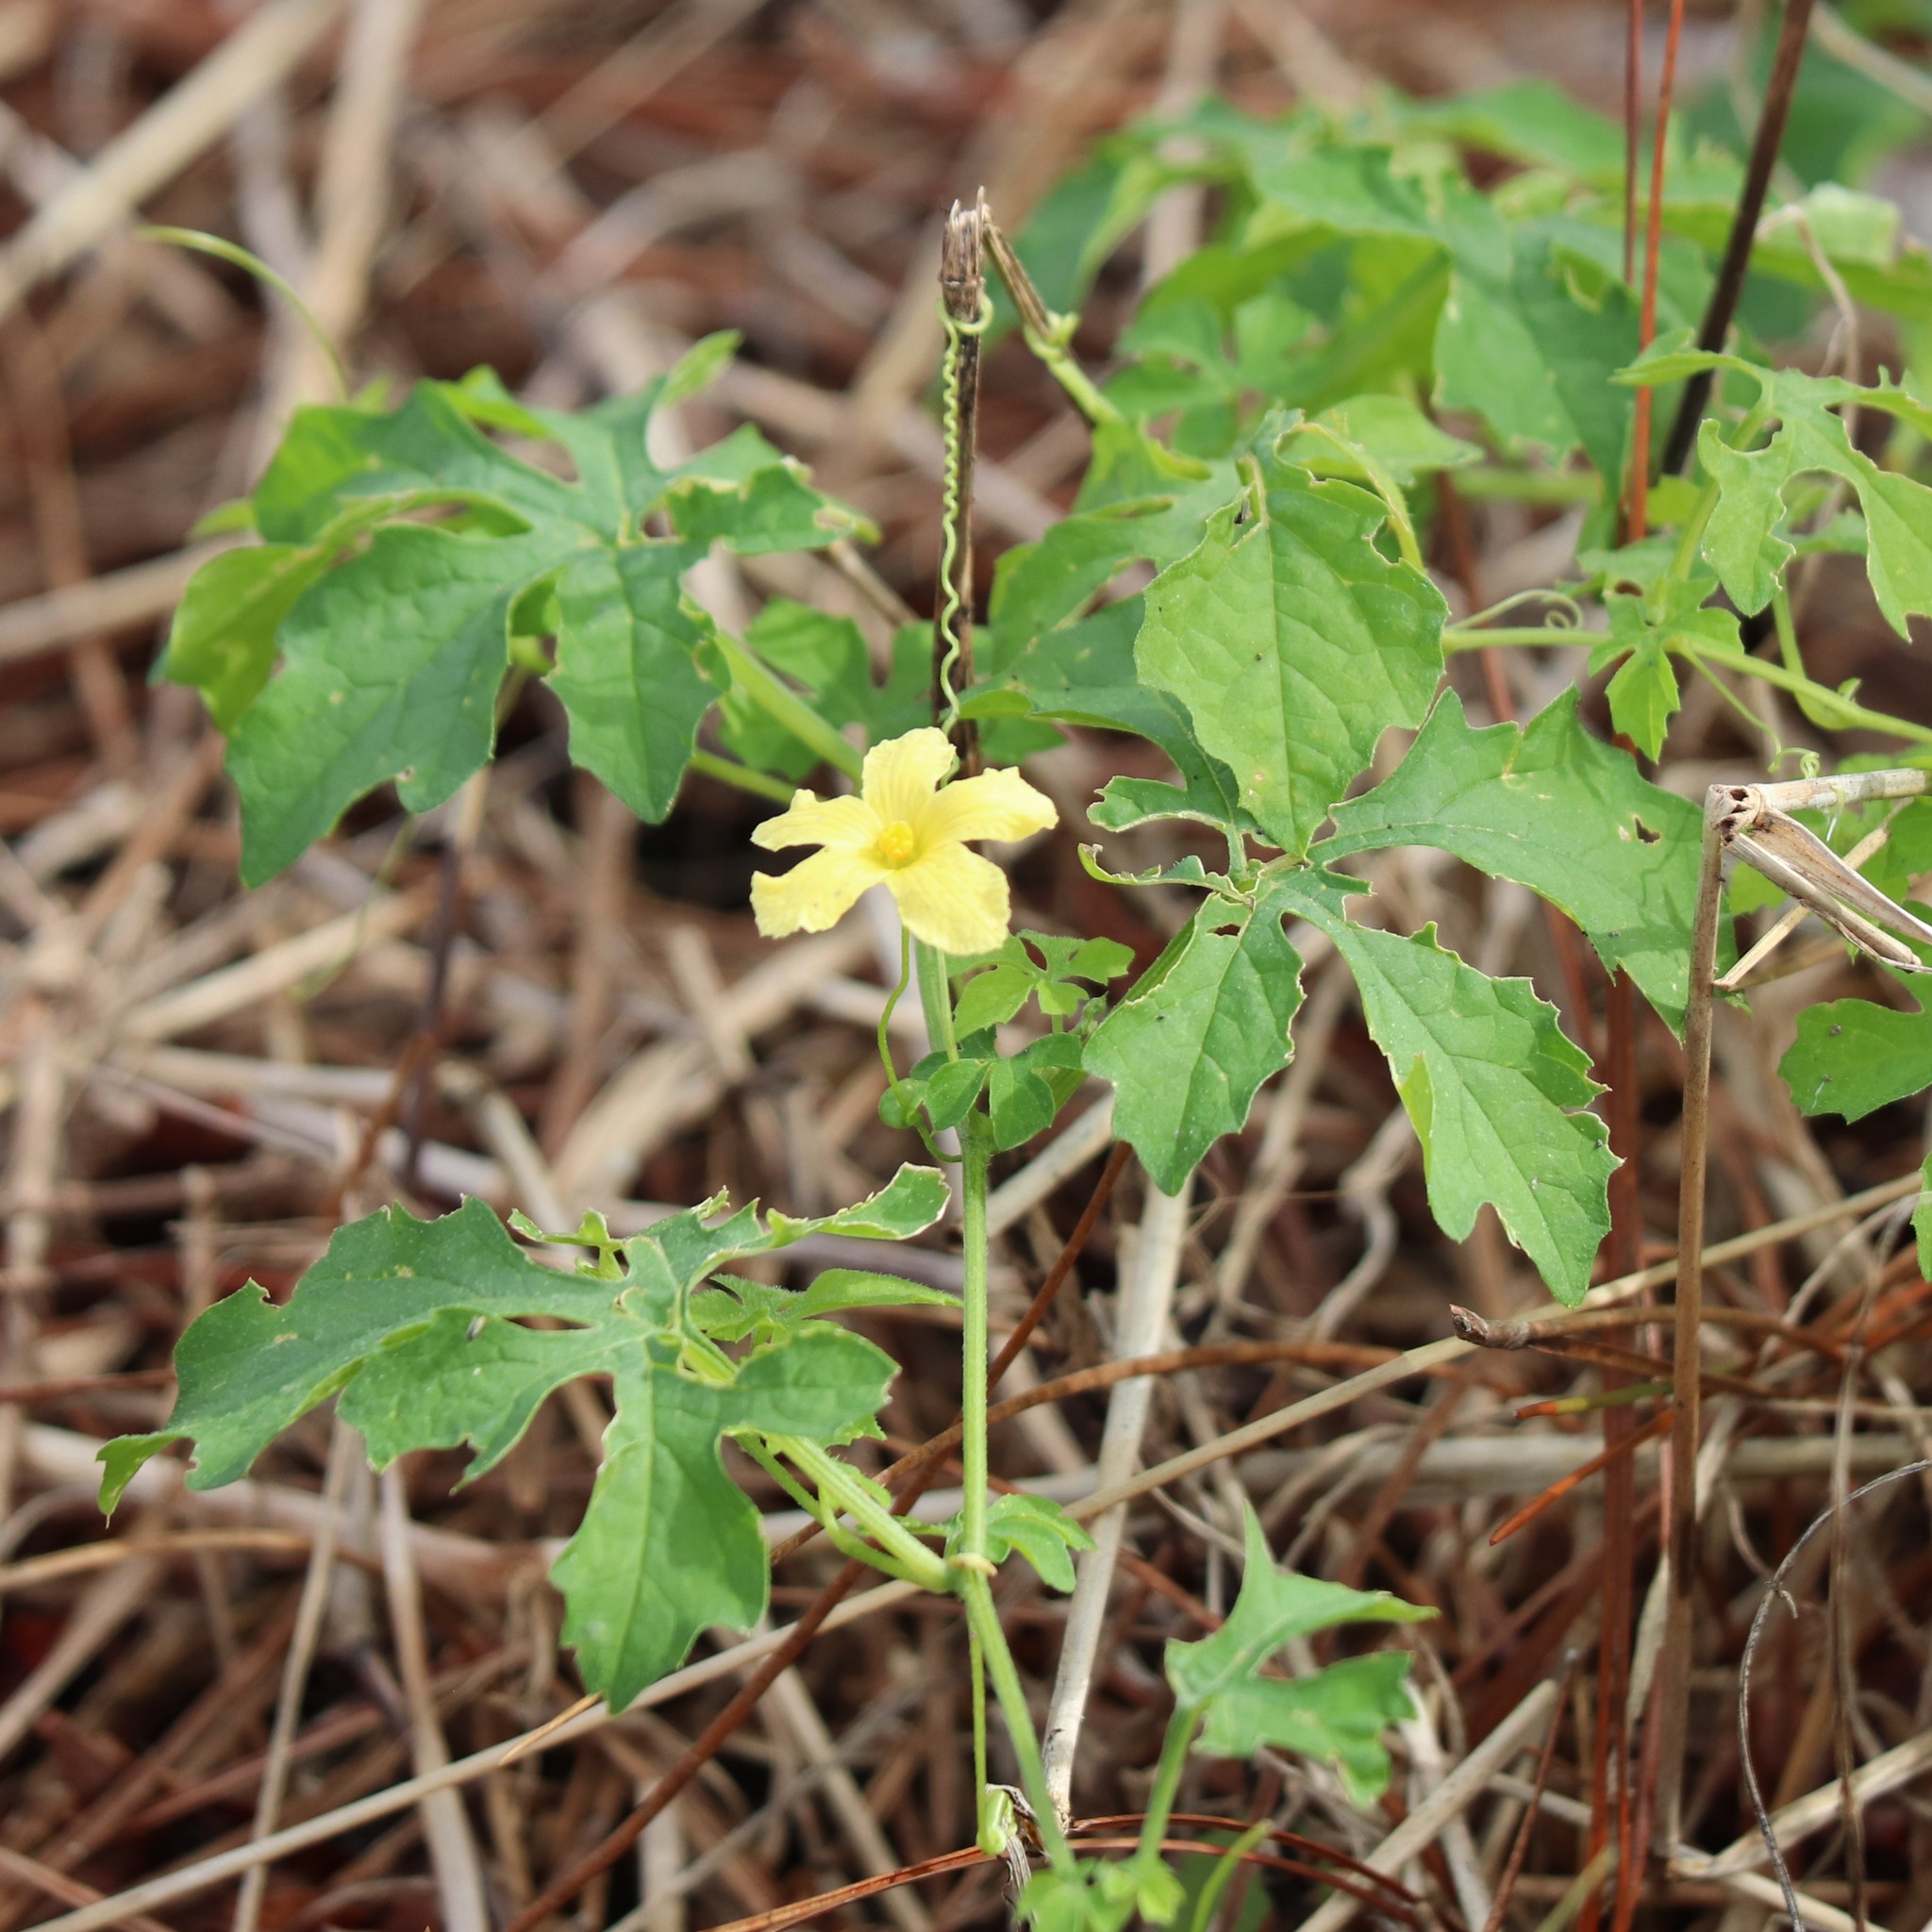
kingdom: Plantae
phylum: Tracheophyta
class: Magnoliopsida
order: Cucurbitales
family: Cucurbitaceae
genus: Momordica
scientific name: Momordica charantia
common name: Balsampear
